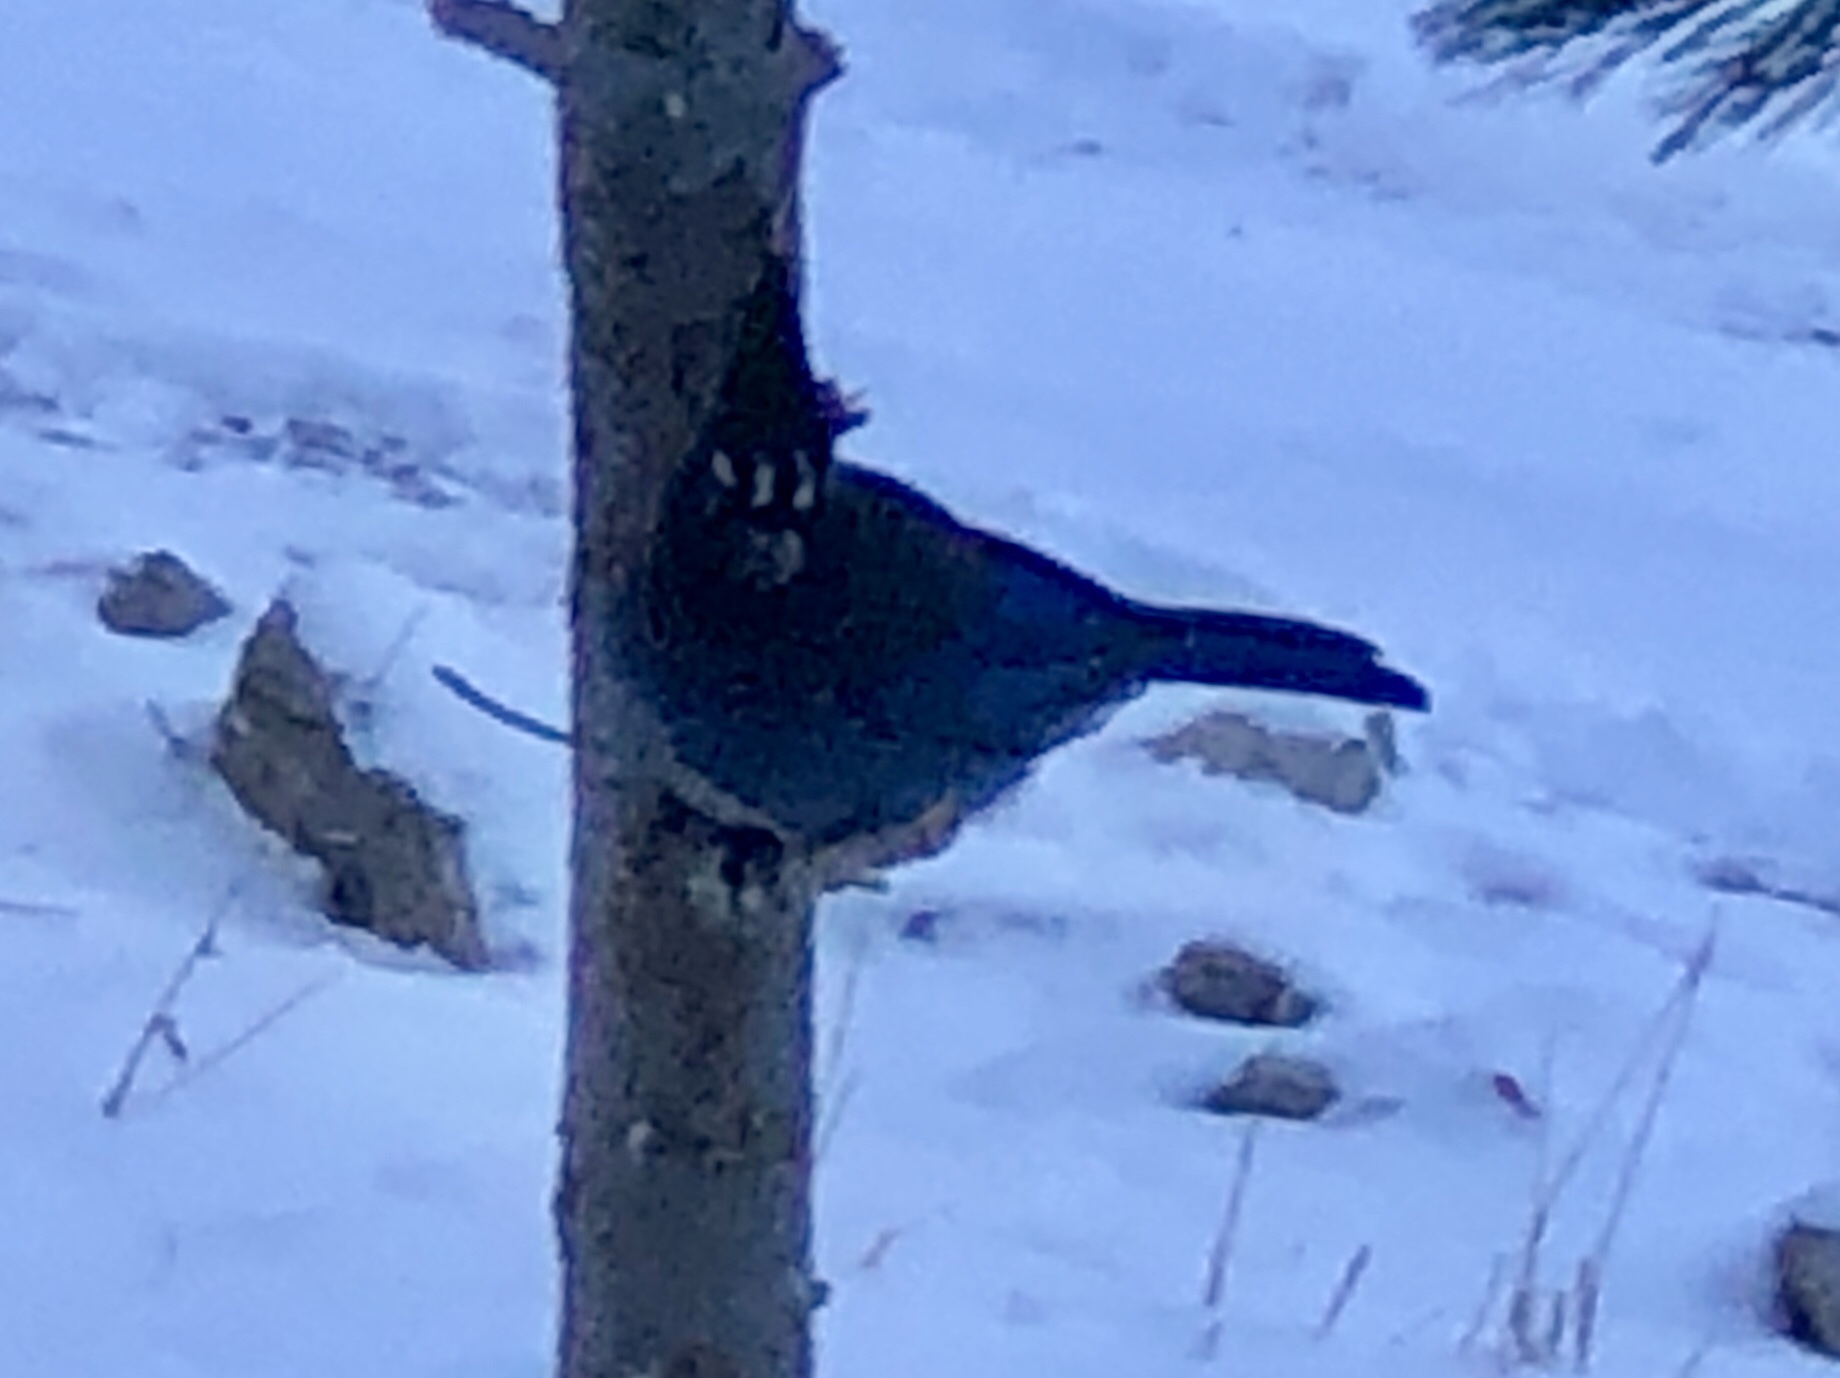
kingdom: Animalia
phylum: Chordata
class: Aves
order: Passeriformes
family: Corvidae
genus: Cyanocitta
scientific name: Cyanocitta stelleri
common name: Steller's jay
